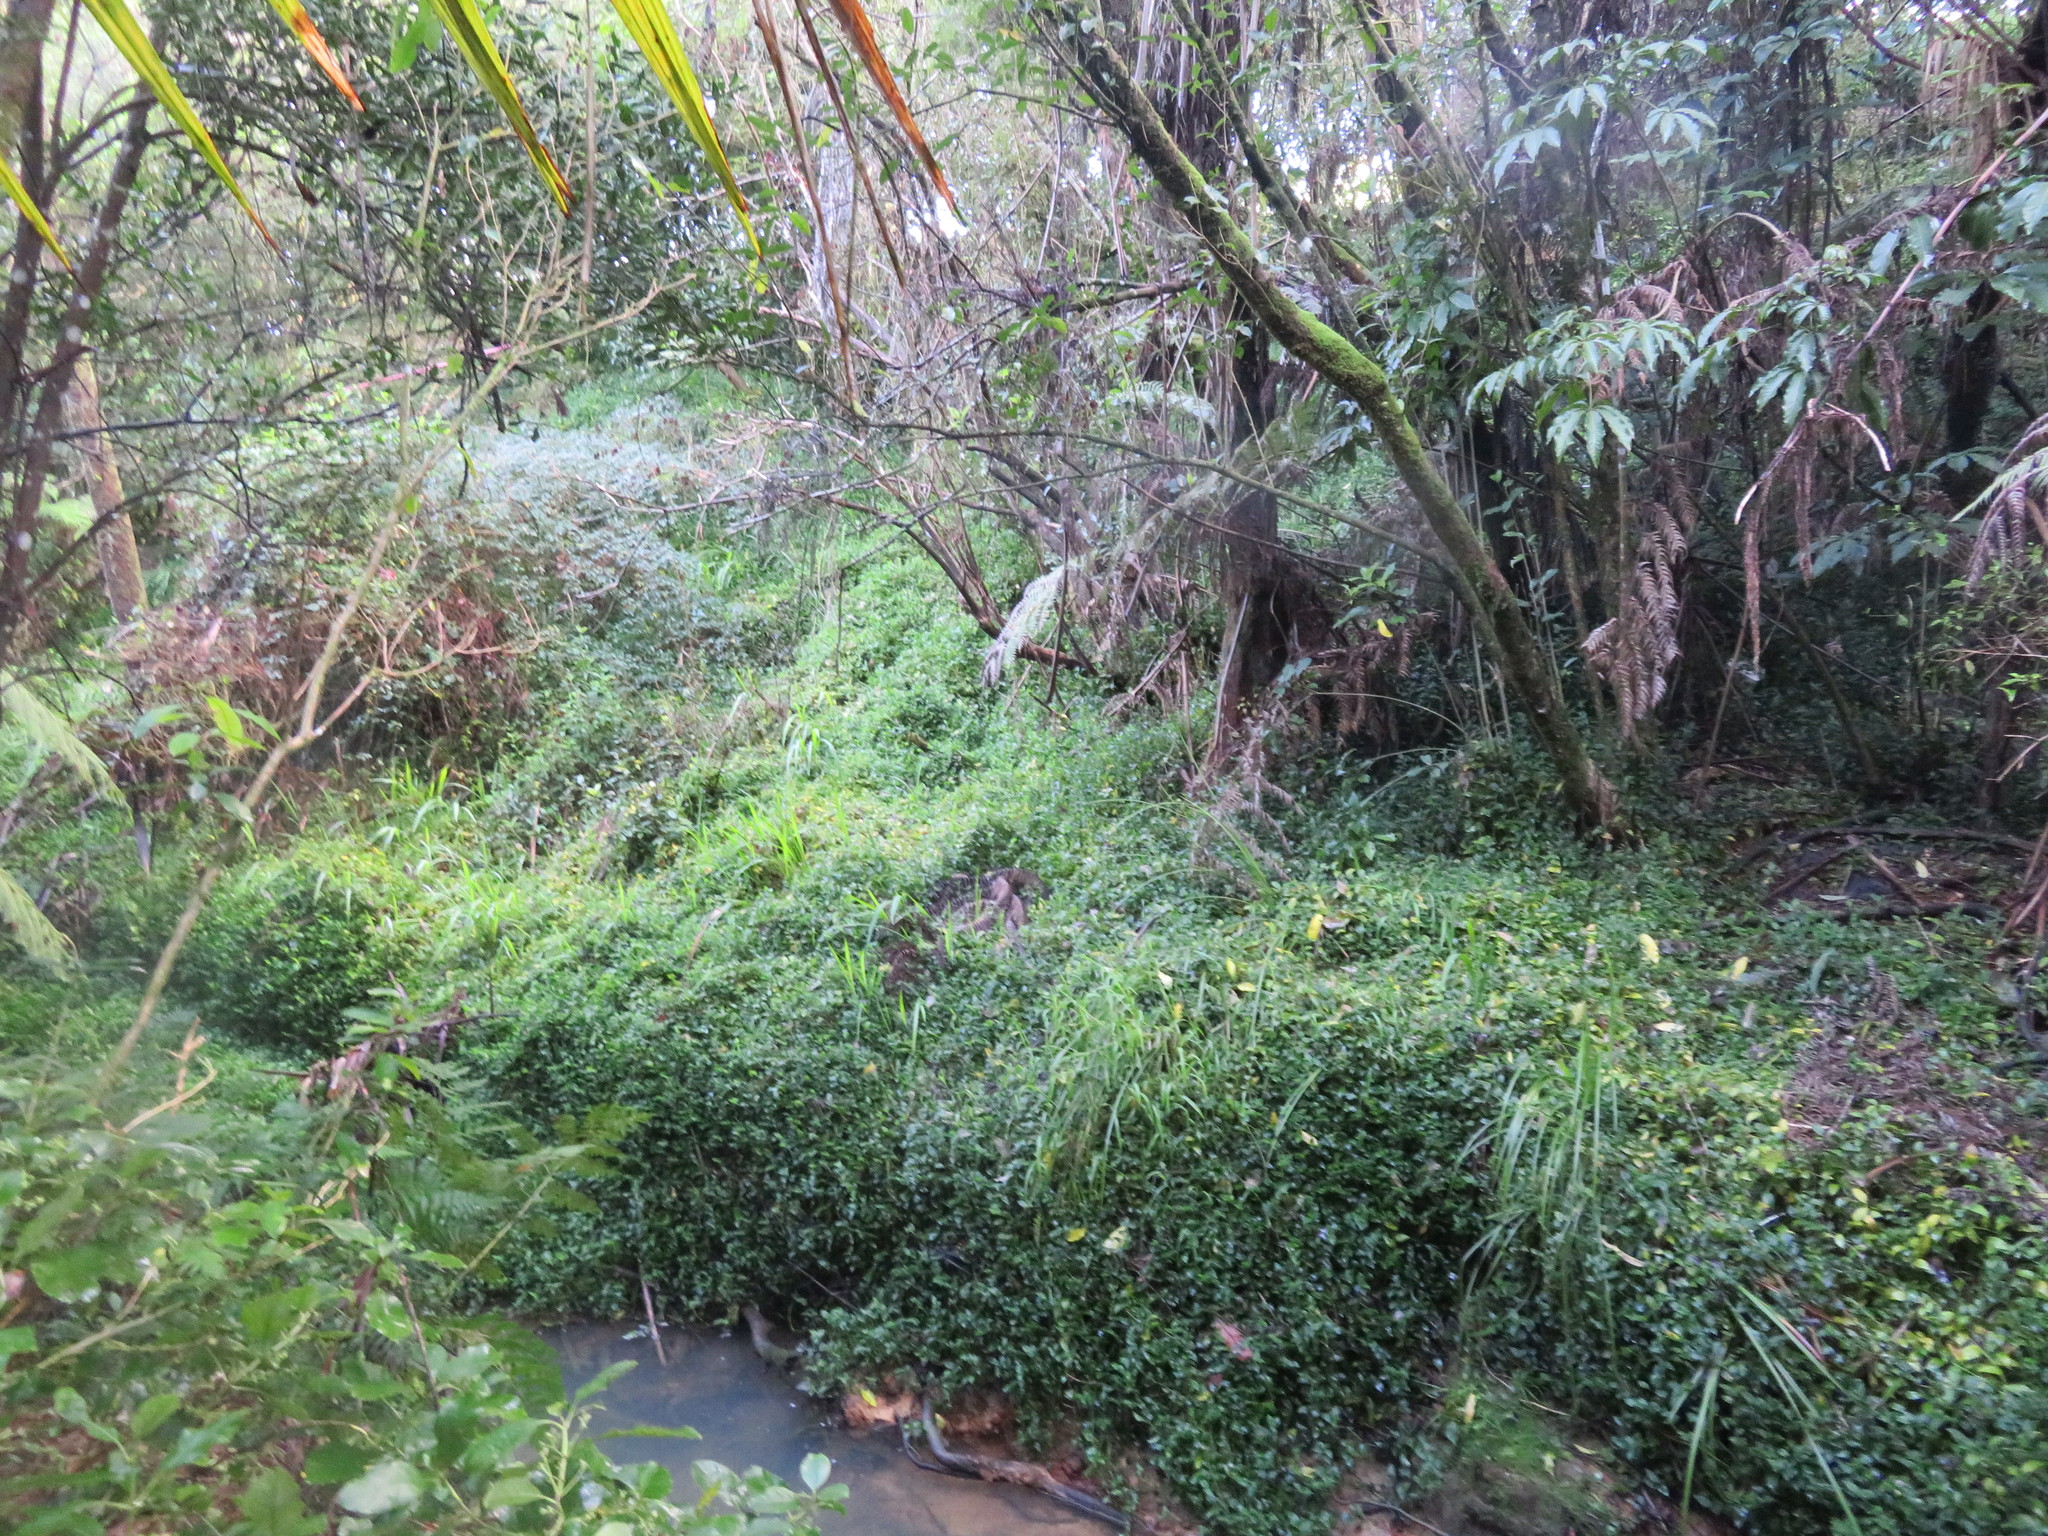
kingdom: Plantae
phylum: Tracheophyta
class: Magnoliopsida
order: Apiales
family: Araliaceae
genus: Schefflera
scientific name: Schefflera digitata
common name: Pate
